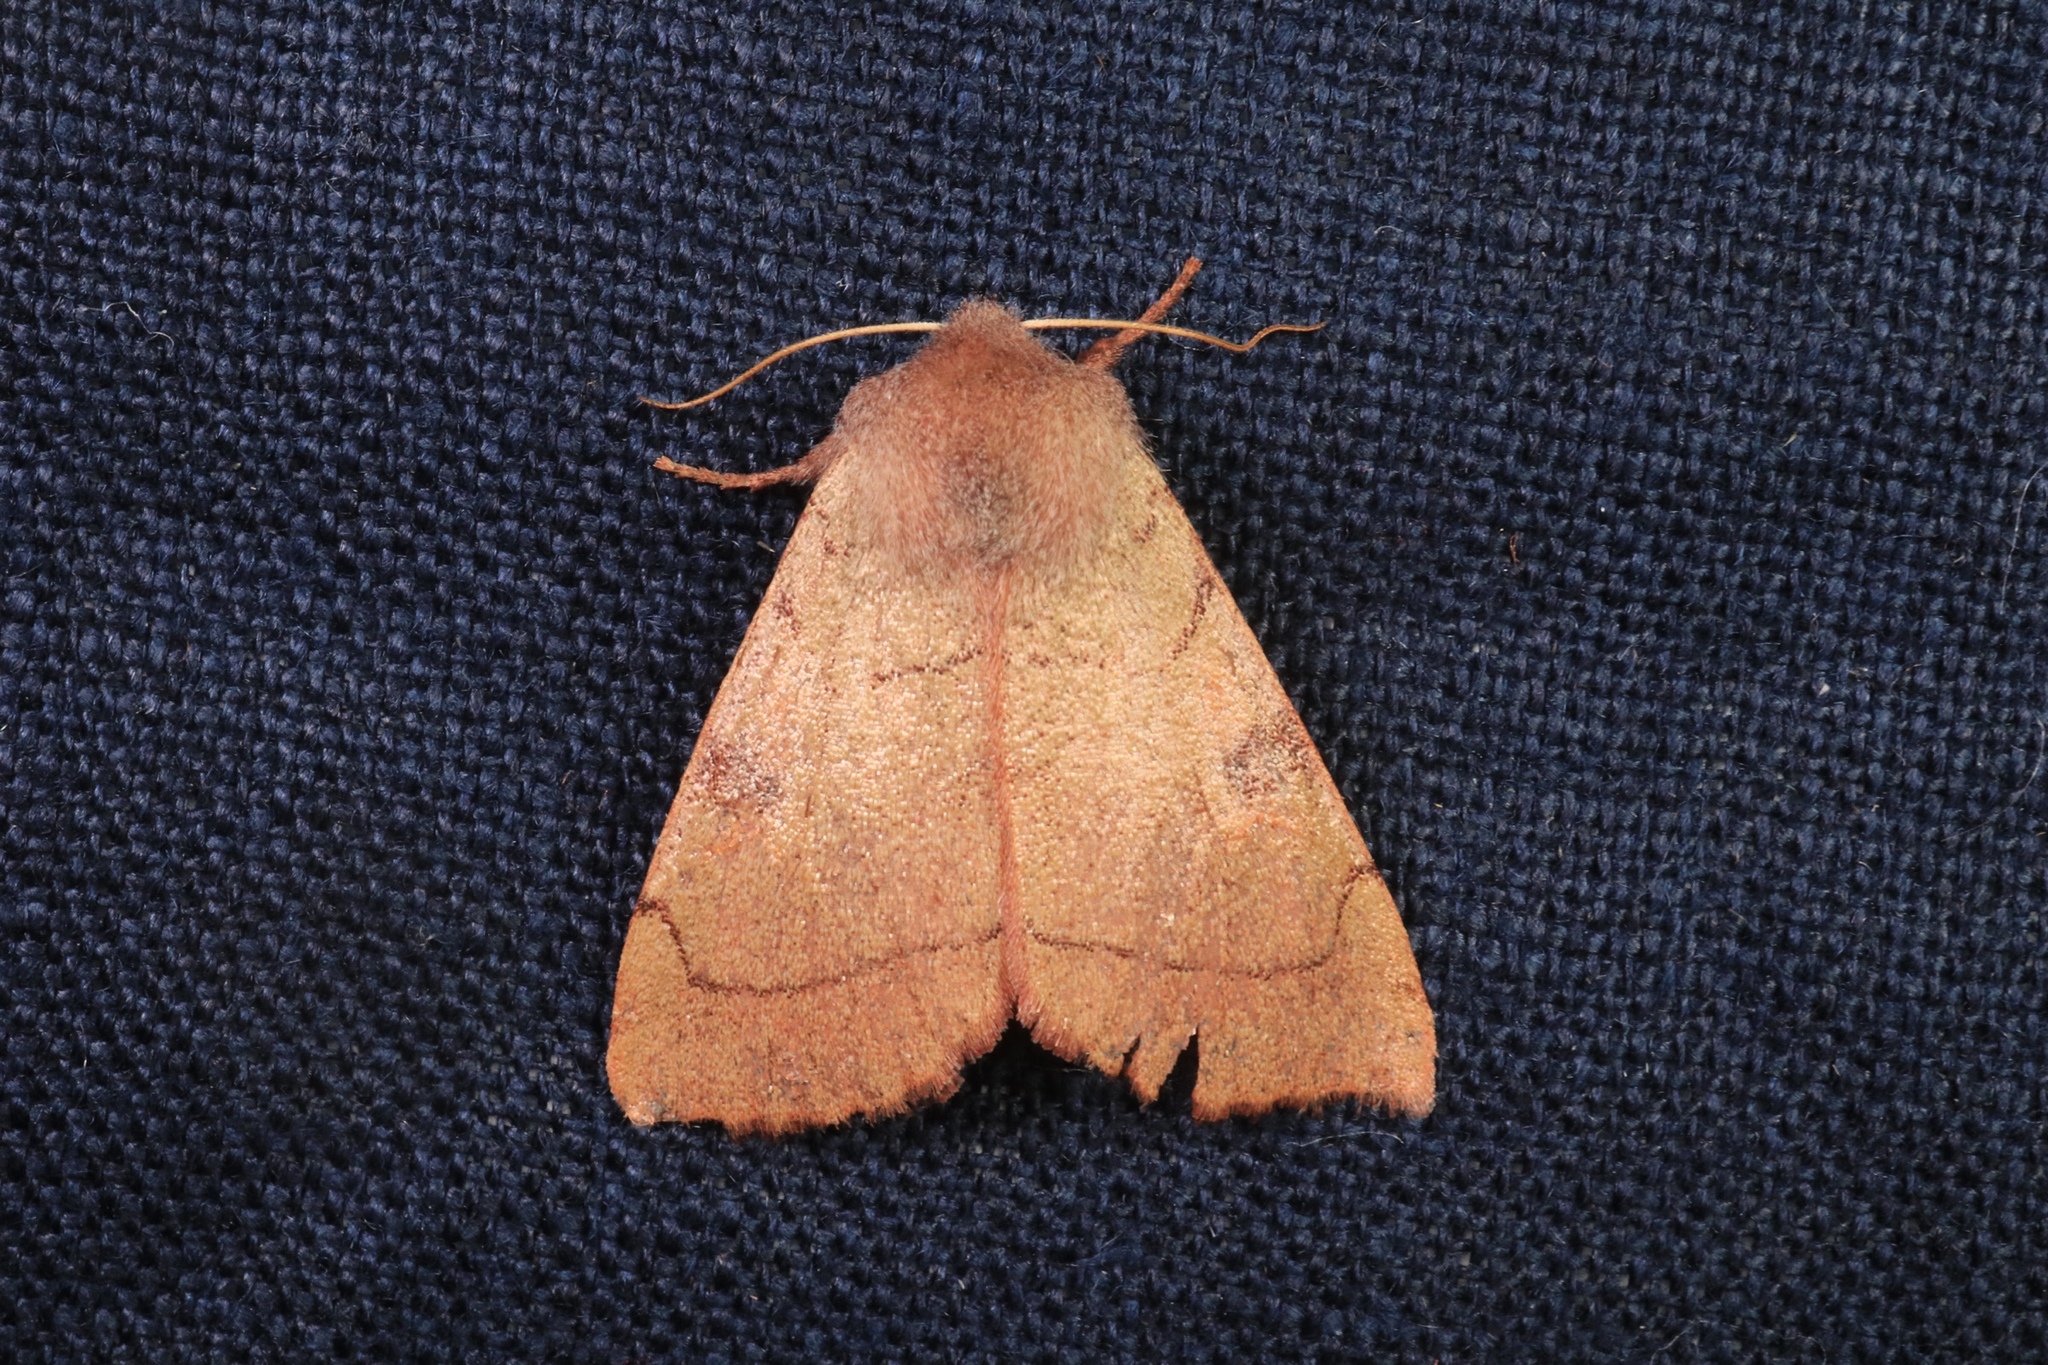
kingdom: Animalia
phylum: Arthropoda
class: Insecta
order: Lepidoptera
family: Noctuidae
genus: Choephora
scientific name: Choephora fungorum
